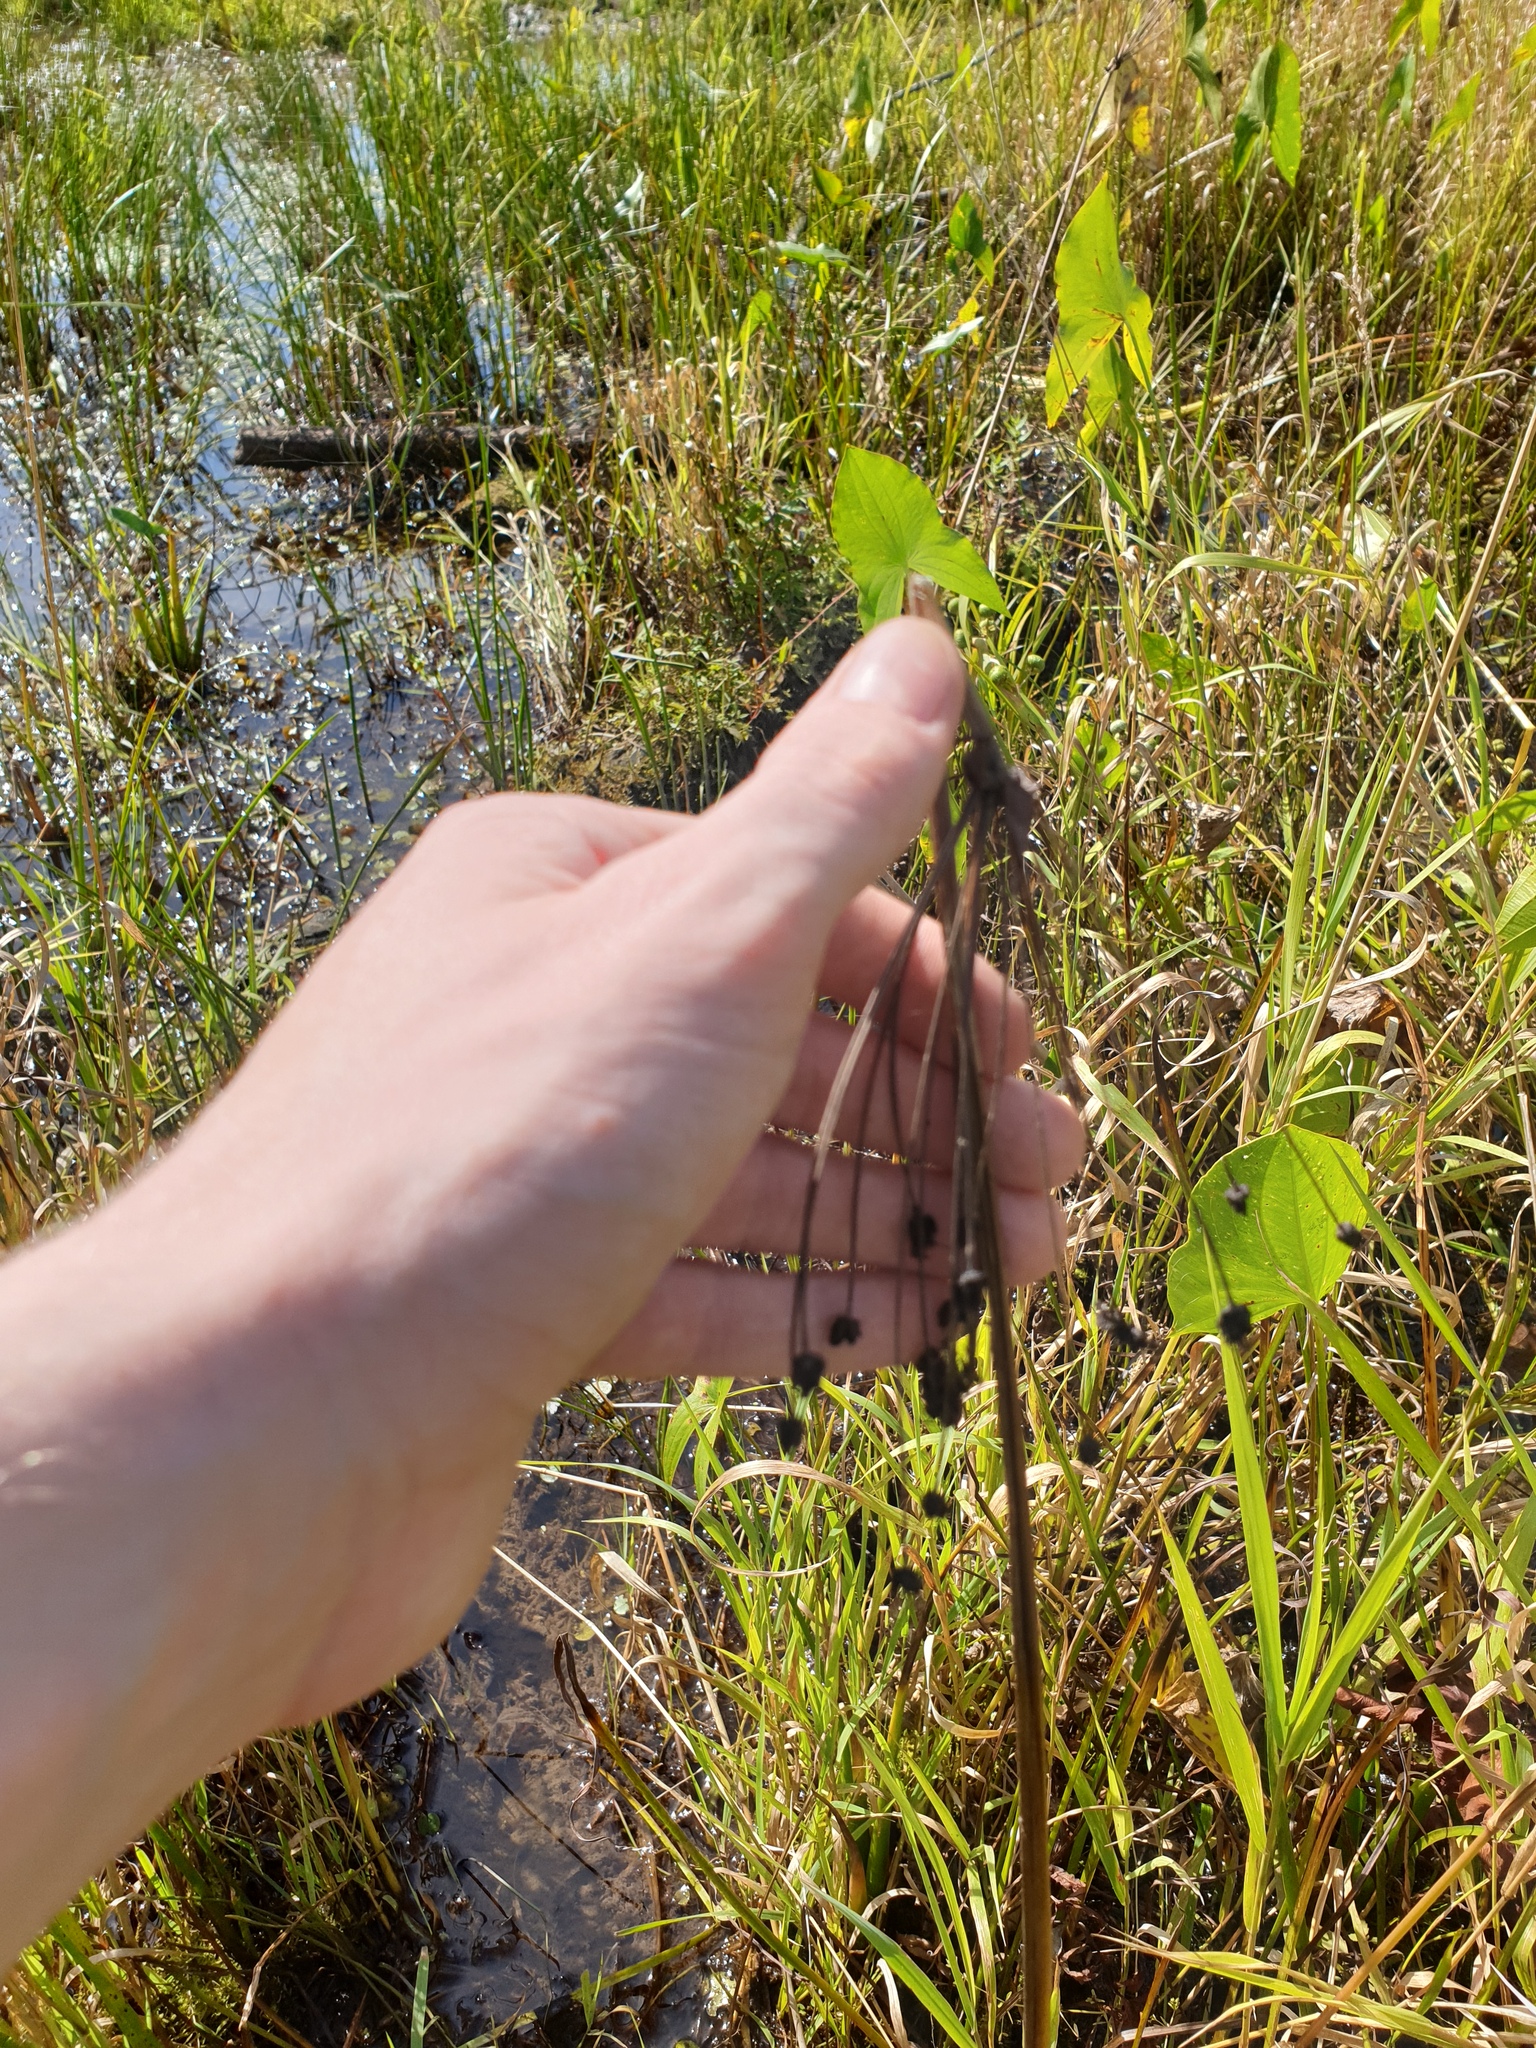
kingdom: Plantae
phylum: Tracheophyta
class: Liliopsida
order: Alismatales
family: Butomaceae
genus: Butomus
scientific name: Butomus umbellatus
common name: Flowering-rush
